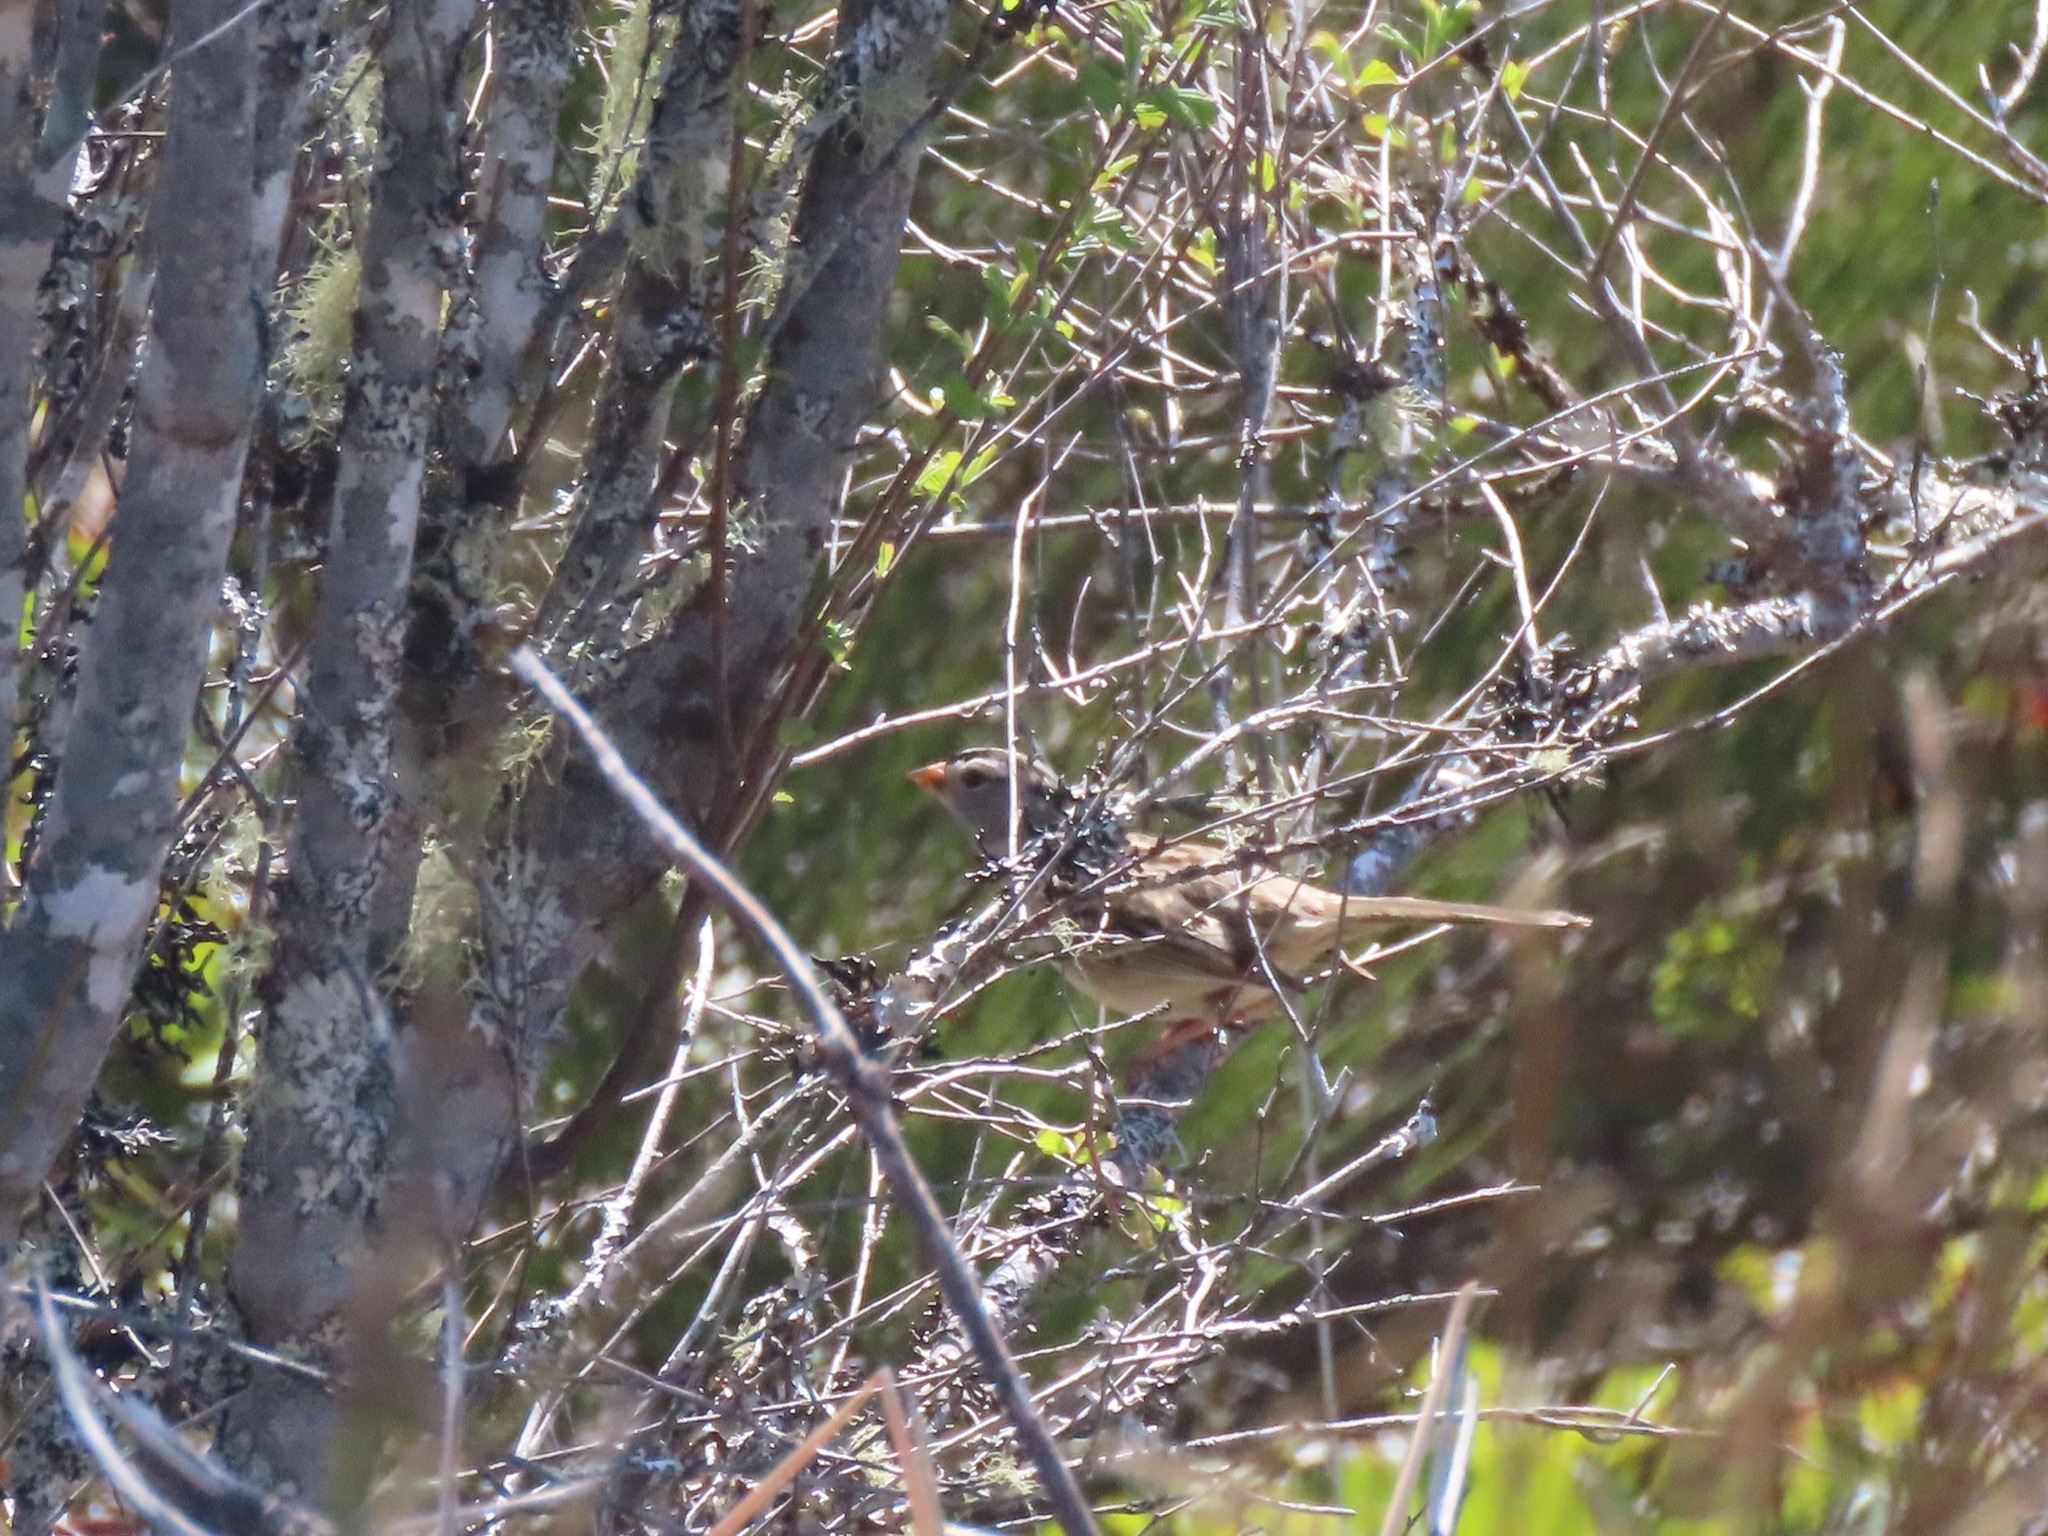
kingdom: Animalia
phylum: Chordata
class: Aves
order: Passeriformes
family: Passerellidae
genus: Zonotrichia
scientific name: Zonotrichia leucophrys
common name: White-crowned sparrow
